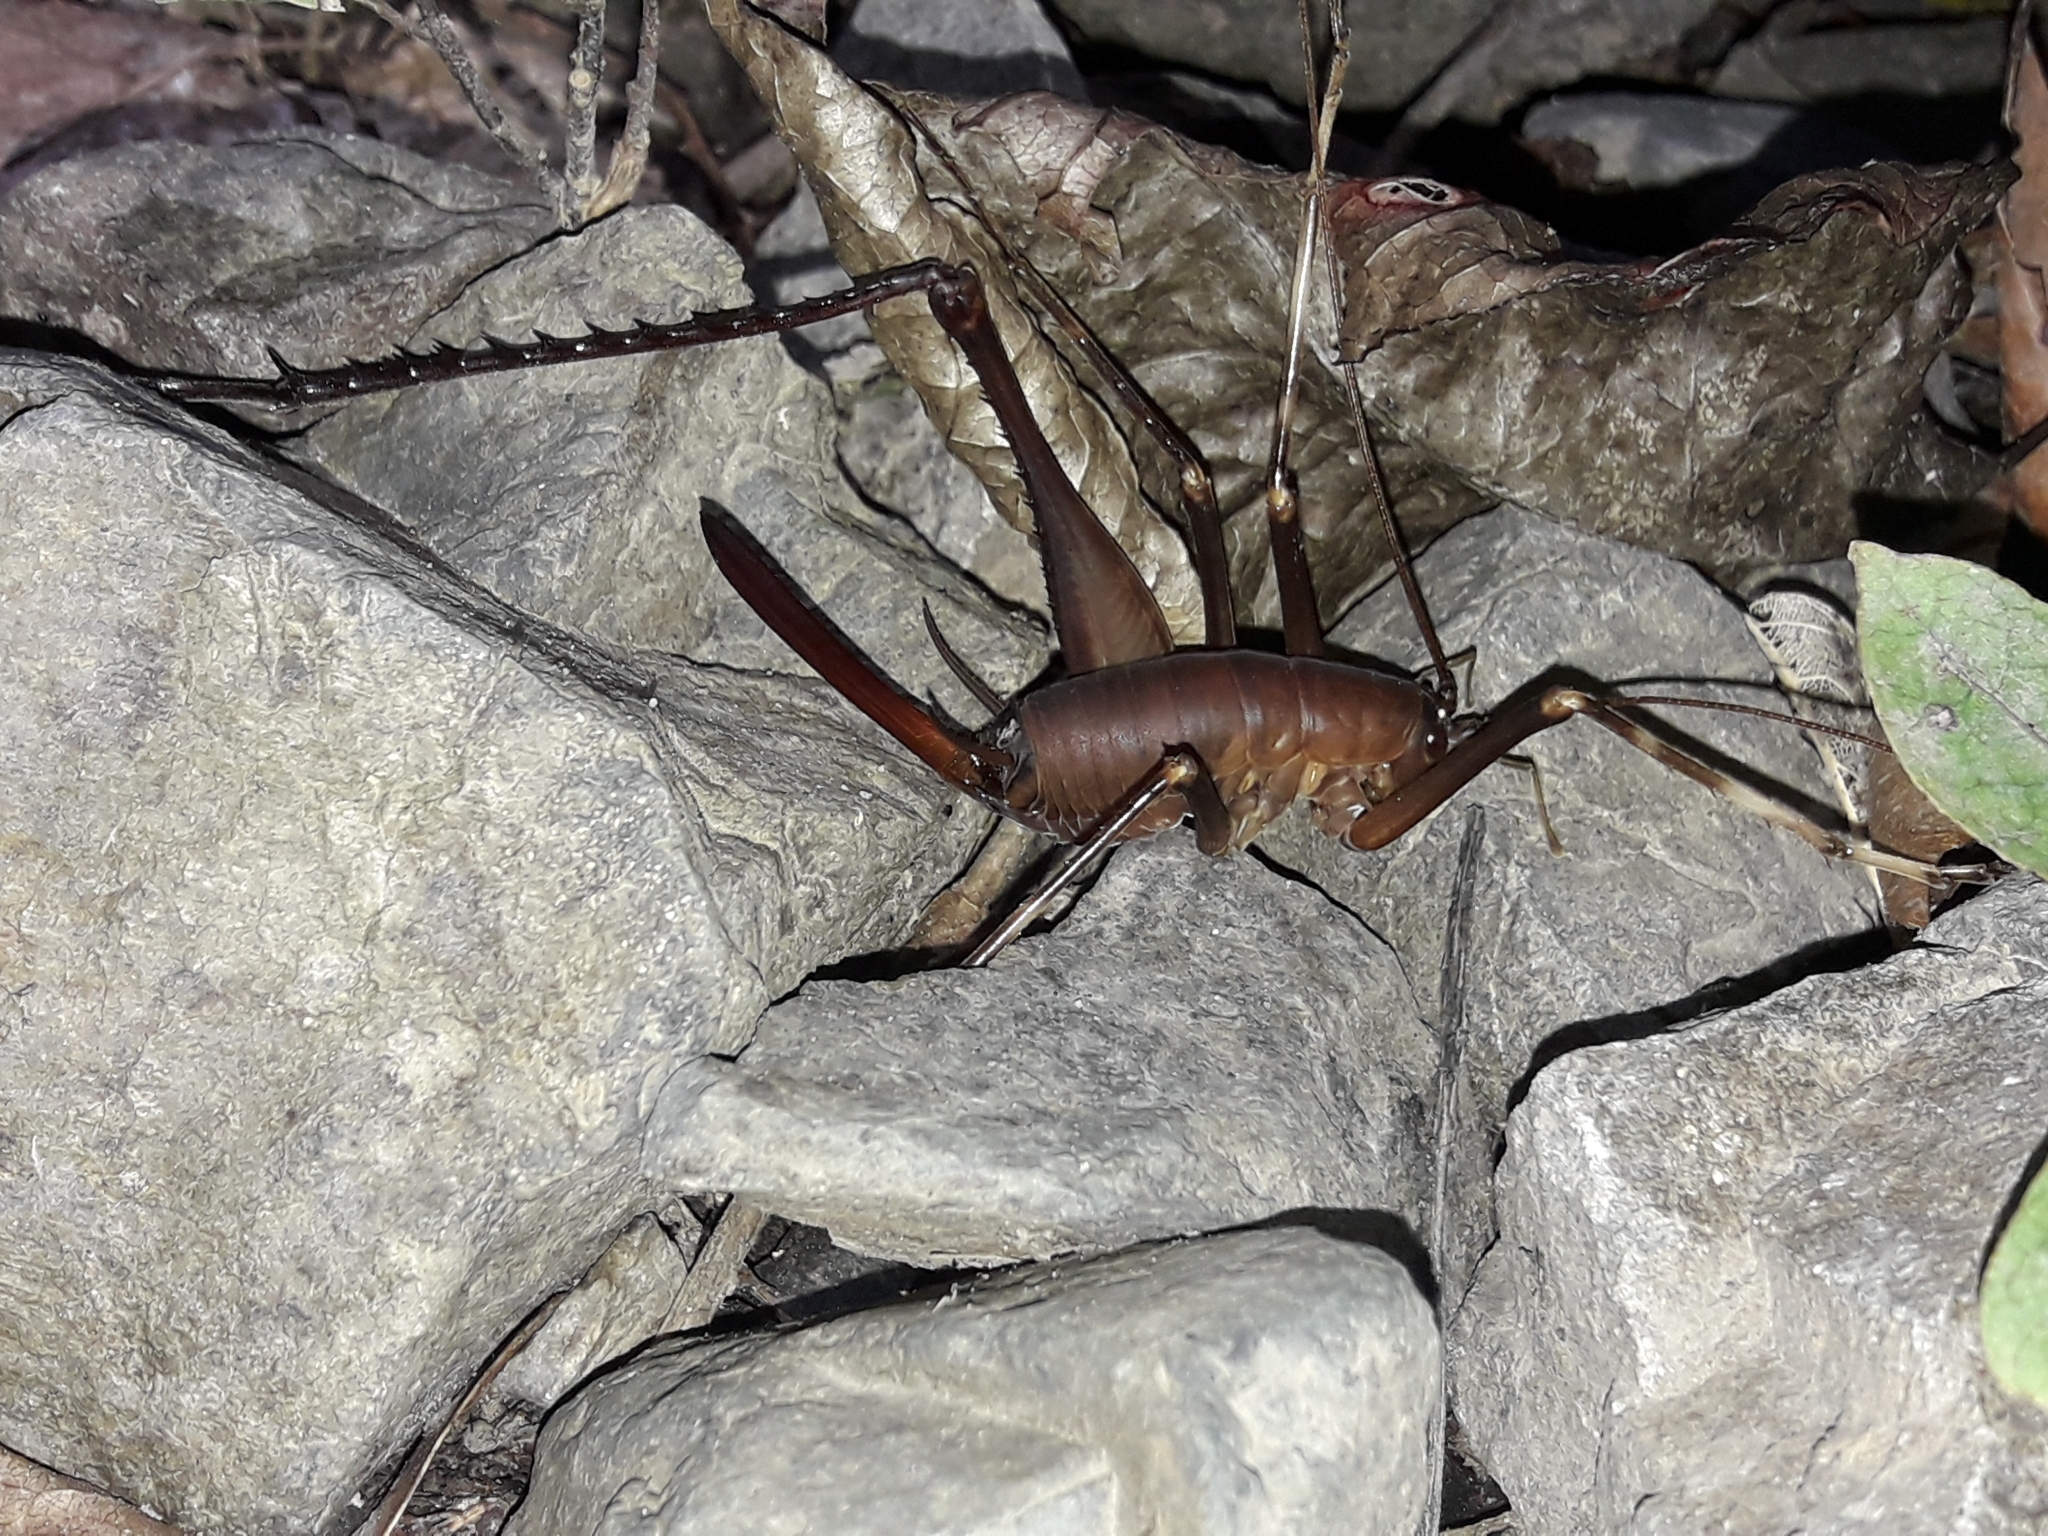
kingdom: Animalia
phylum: Arthropoda
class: Insecta
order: Orthoptera
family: Rhaphidophoridae
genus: Pachyrhamma
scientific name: Pachyrhamma longipes
